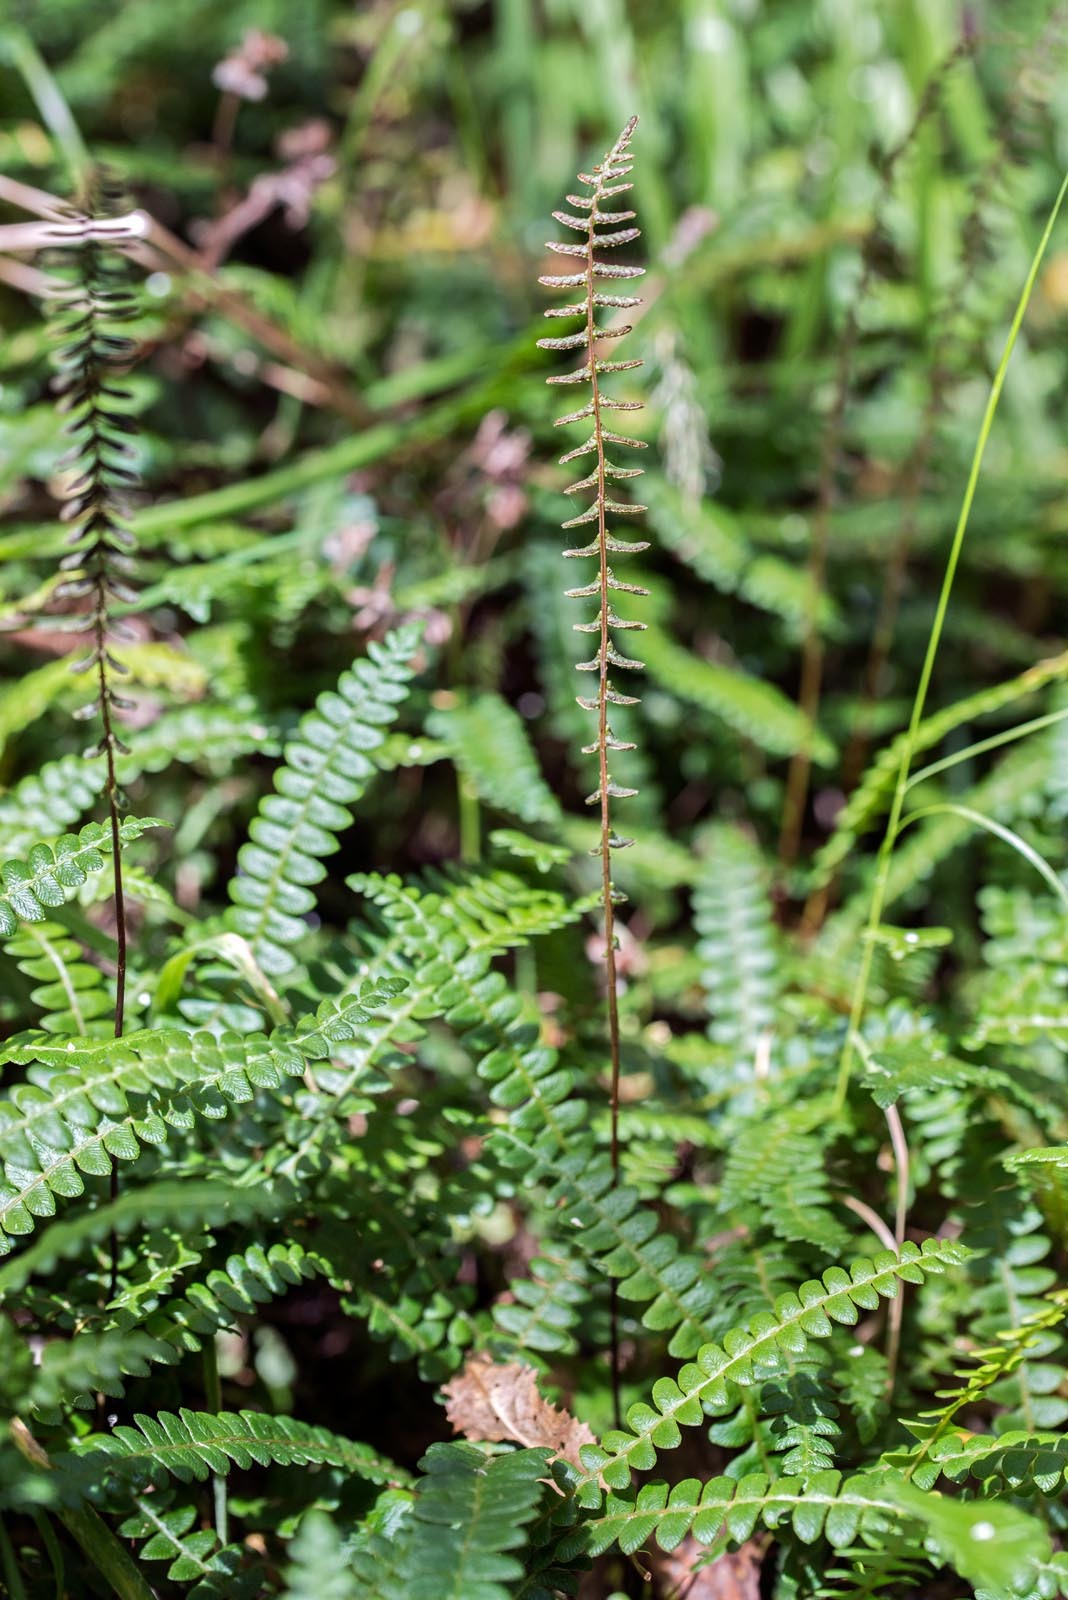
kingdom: Plantae
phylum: Tracheophyta
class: Polypodiopsida
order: Polypodiales
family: Blechnaceae
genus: Austroblechnum
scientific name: Austroblechnum penna-marina
